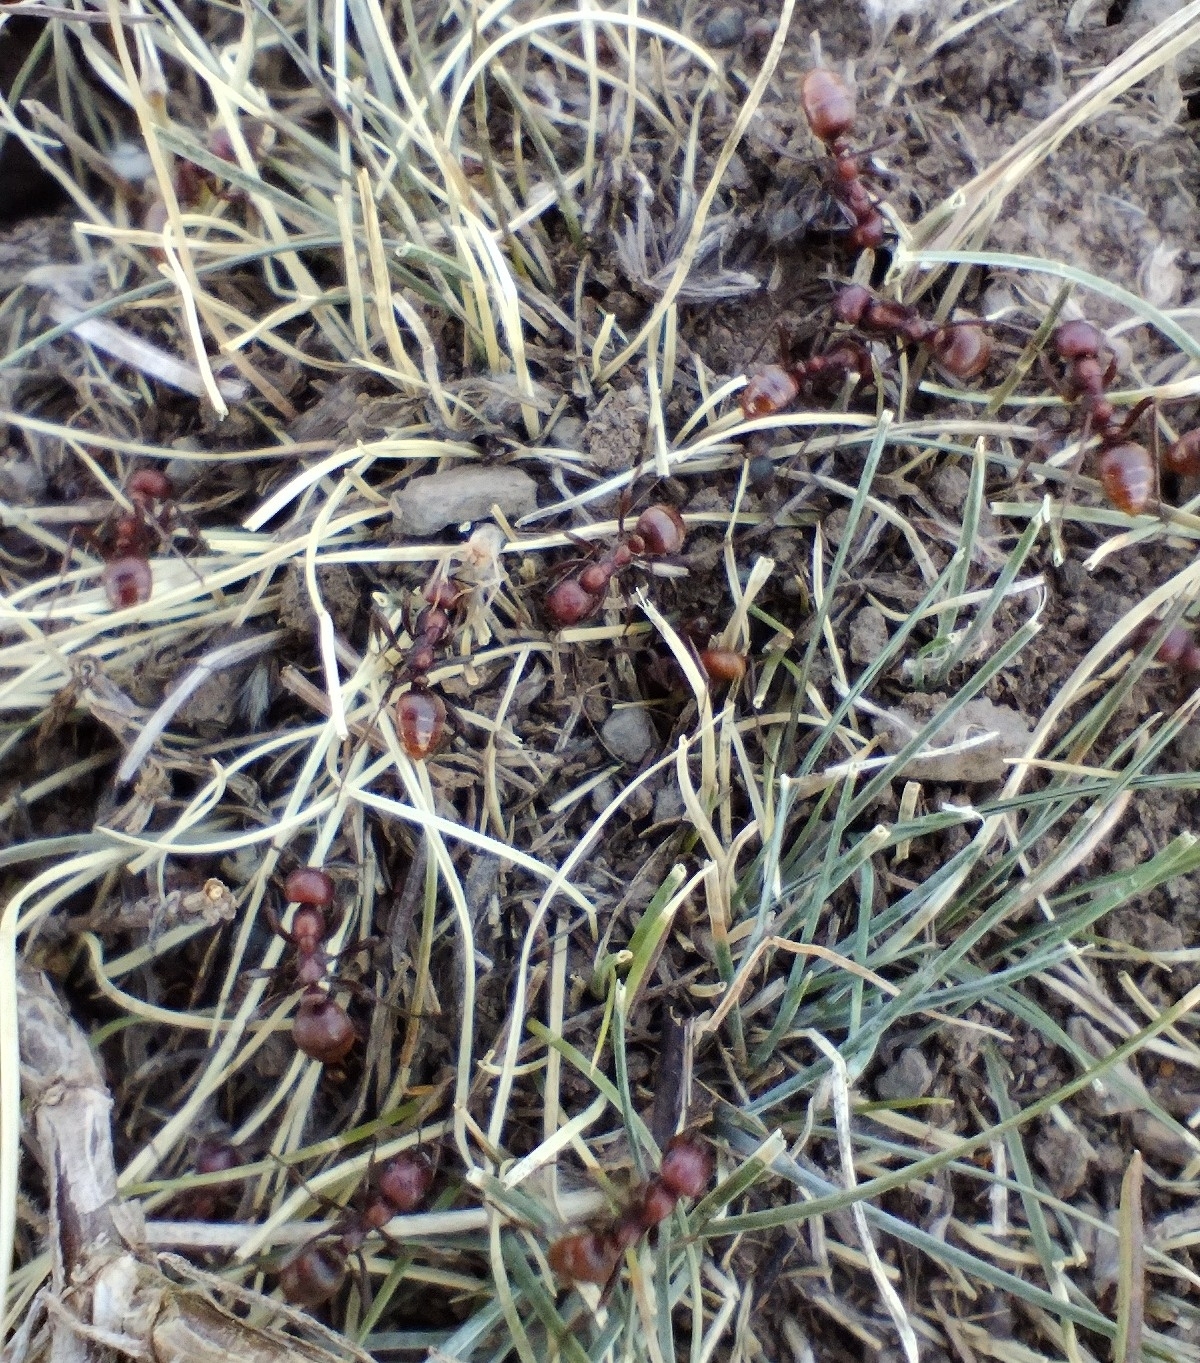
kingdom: Animalia
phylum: Arthropoda
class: Insecta
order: Hymenoptera
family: Formicidae
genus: Polyergus
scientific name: Polyergus rufescens
